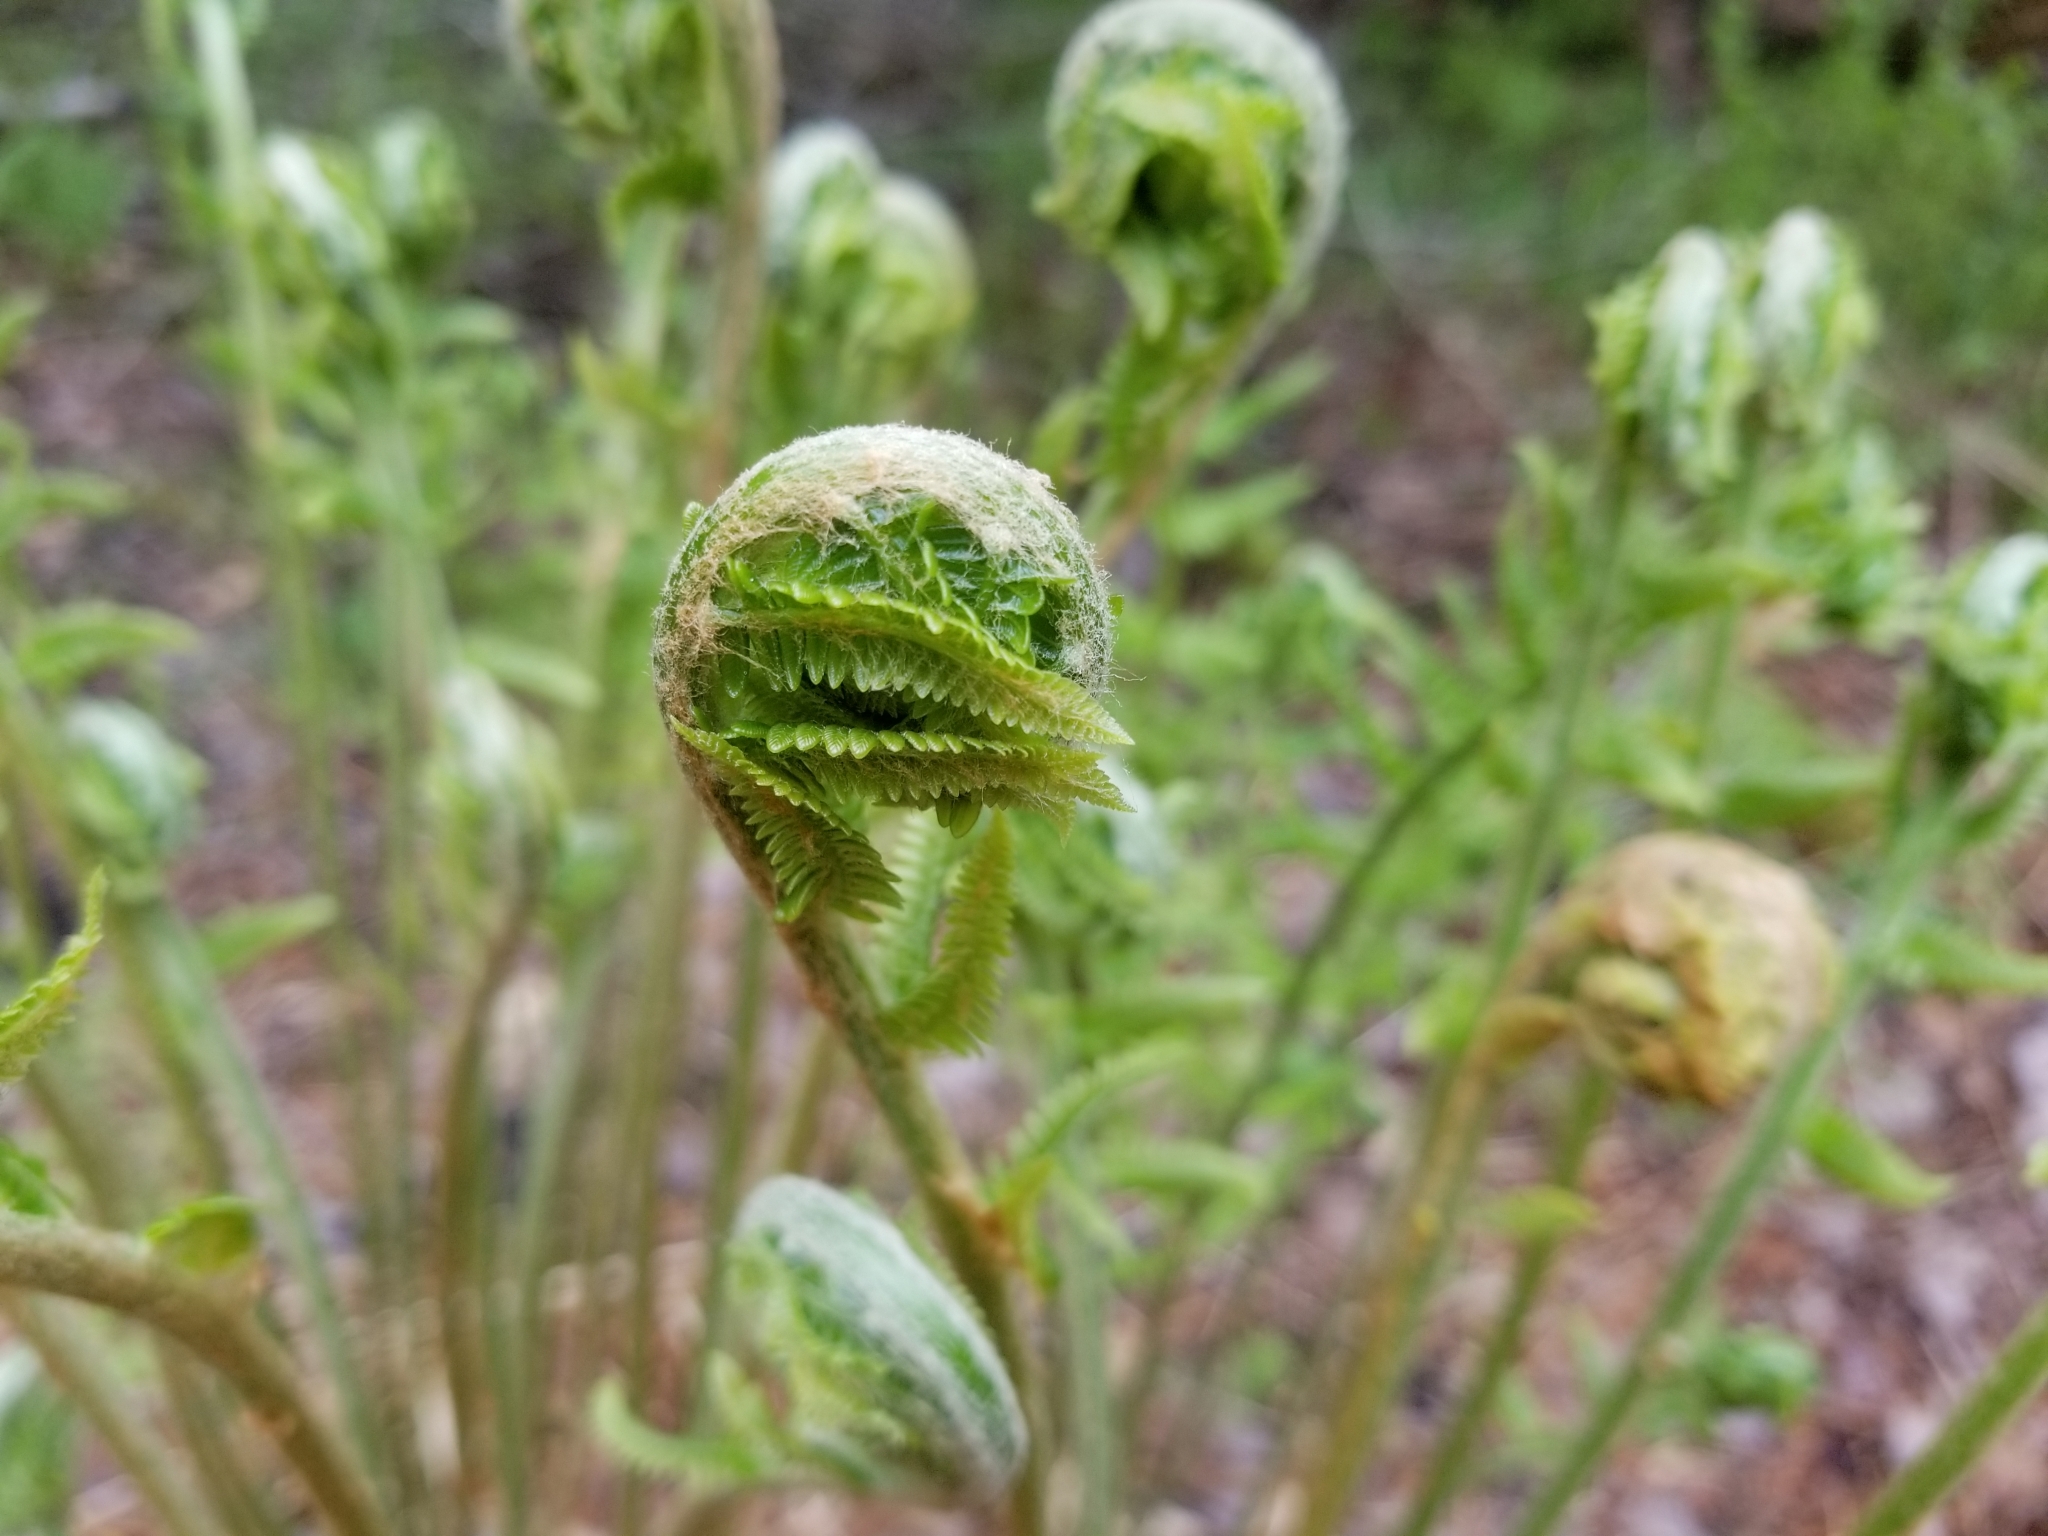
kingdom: Plantae
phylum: Tracheophyta
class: Polypodiopsida
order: Osmundales
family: Osmundaceae
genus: Osmundastrum
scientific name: Osmundastrum cinnamomeum
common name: Cinnamon fern
